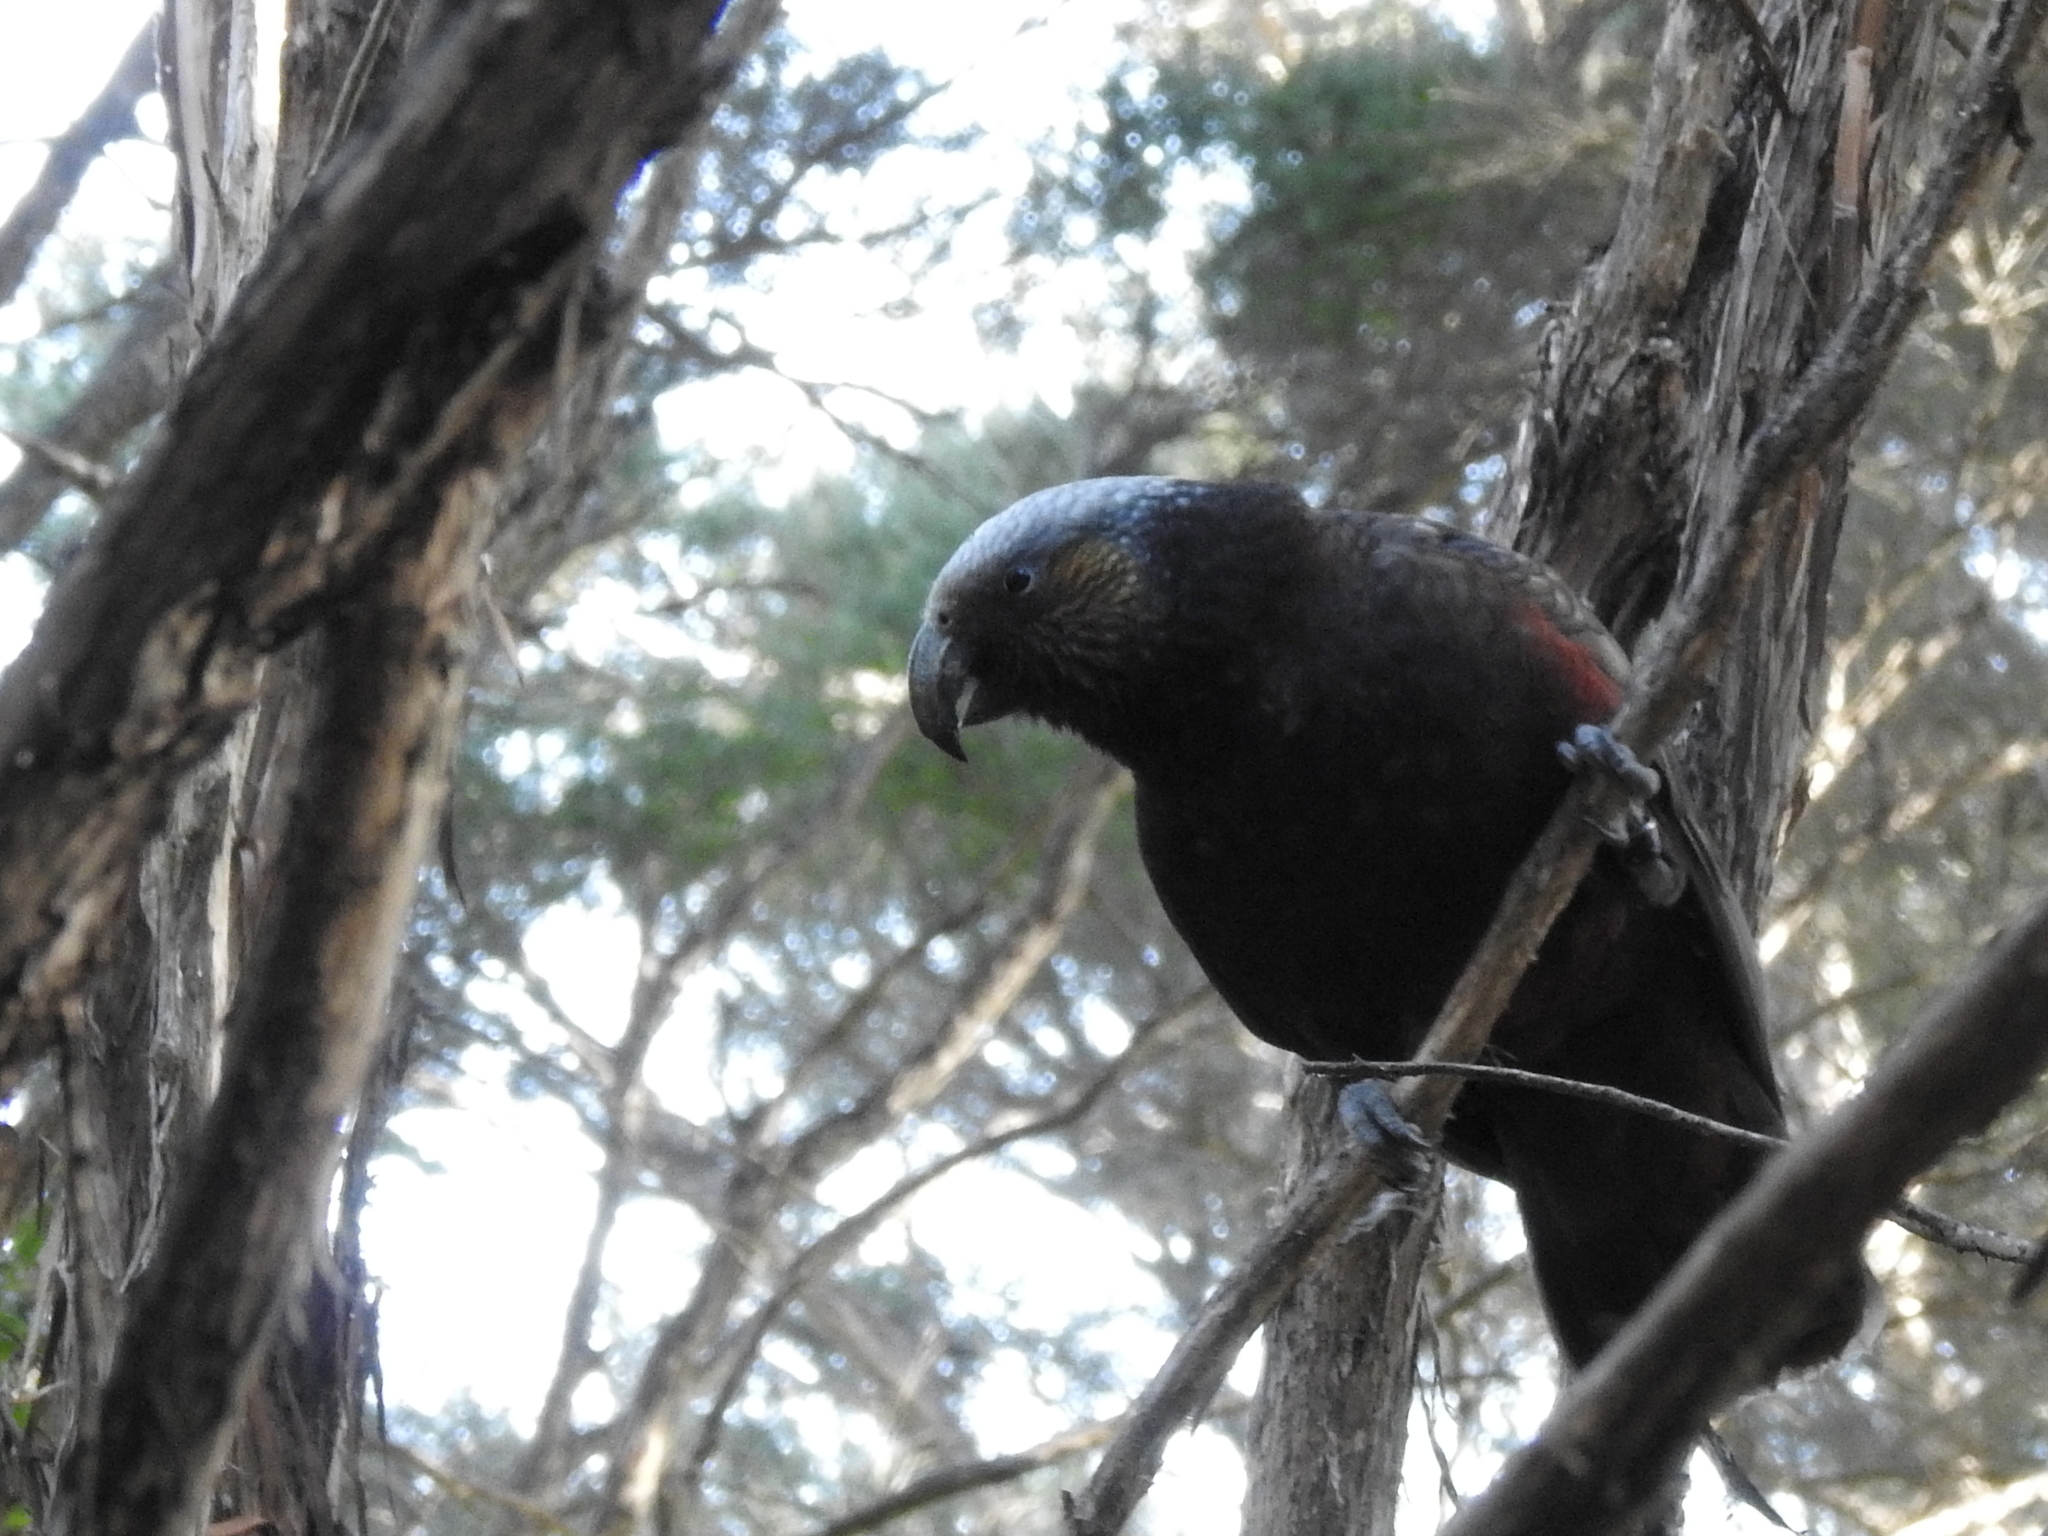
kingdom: Animalia
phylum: Chordata
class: Aves
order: Psittaciformes
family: Psittacidae
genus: Nestor
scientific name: Nestor meridionalis
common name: New zealand kaka
